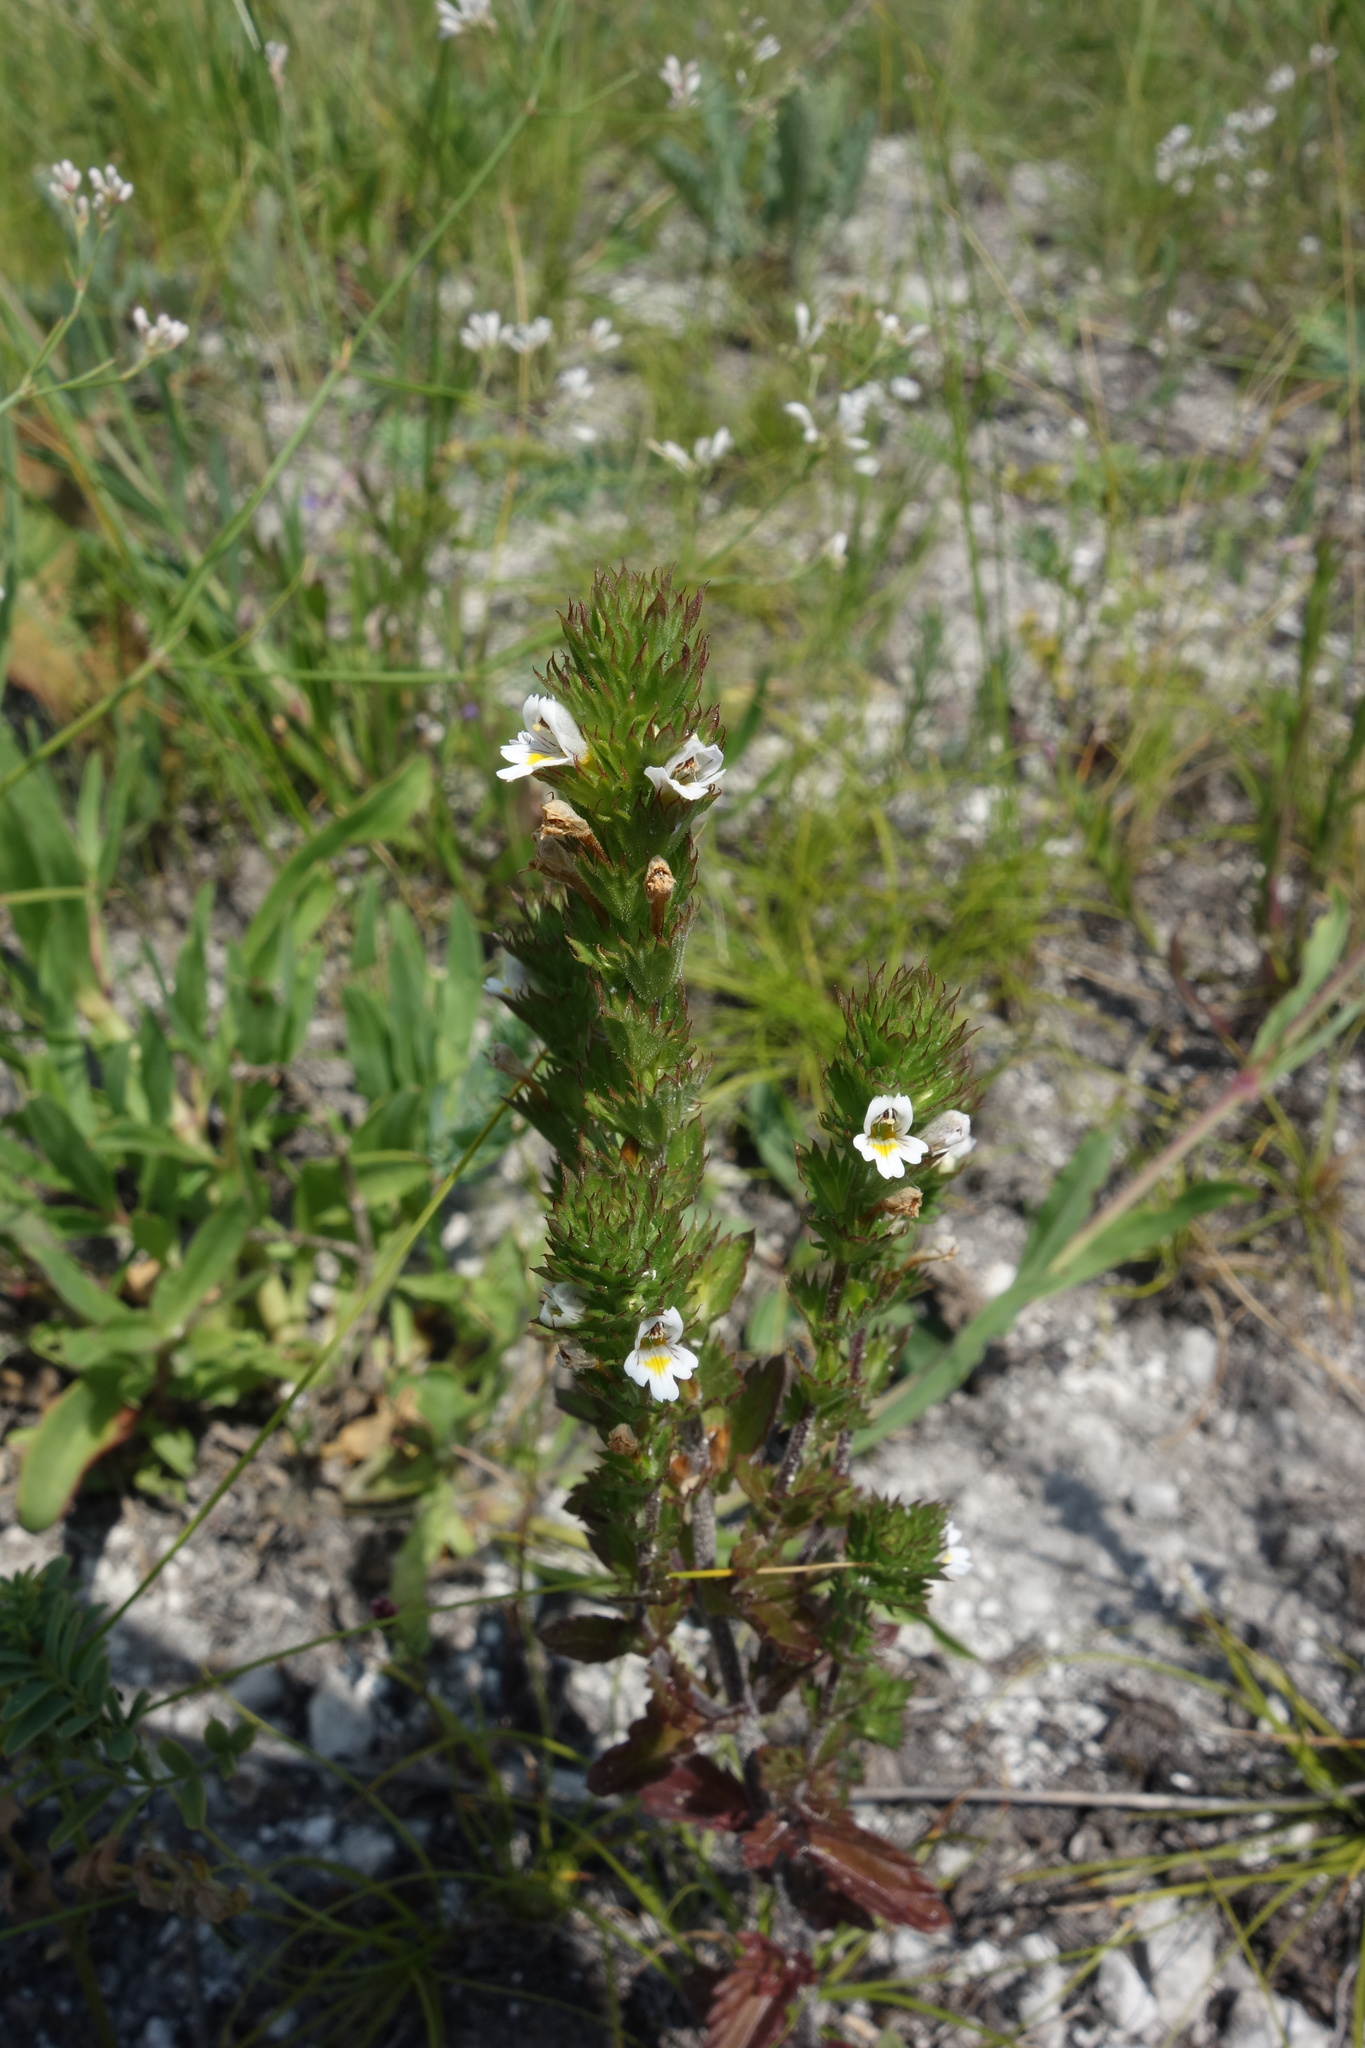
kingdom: Plantae
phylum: Tracheophyta
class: Magnoliopsida
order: Lamiales
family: Orobanchaceae
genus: Euphrasia
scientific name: Euphrasia pectinata
